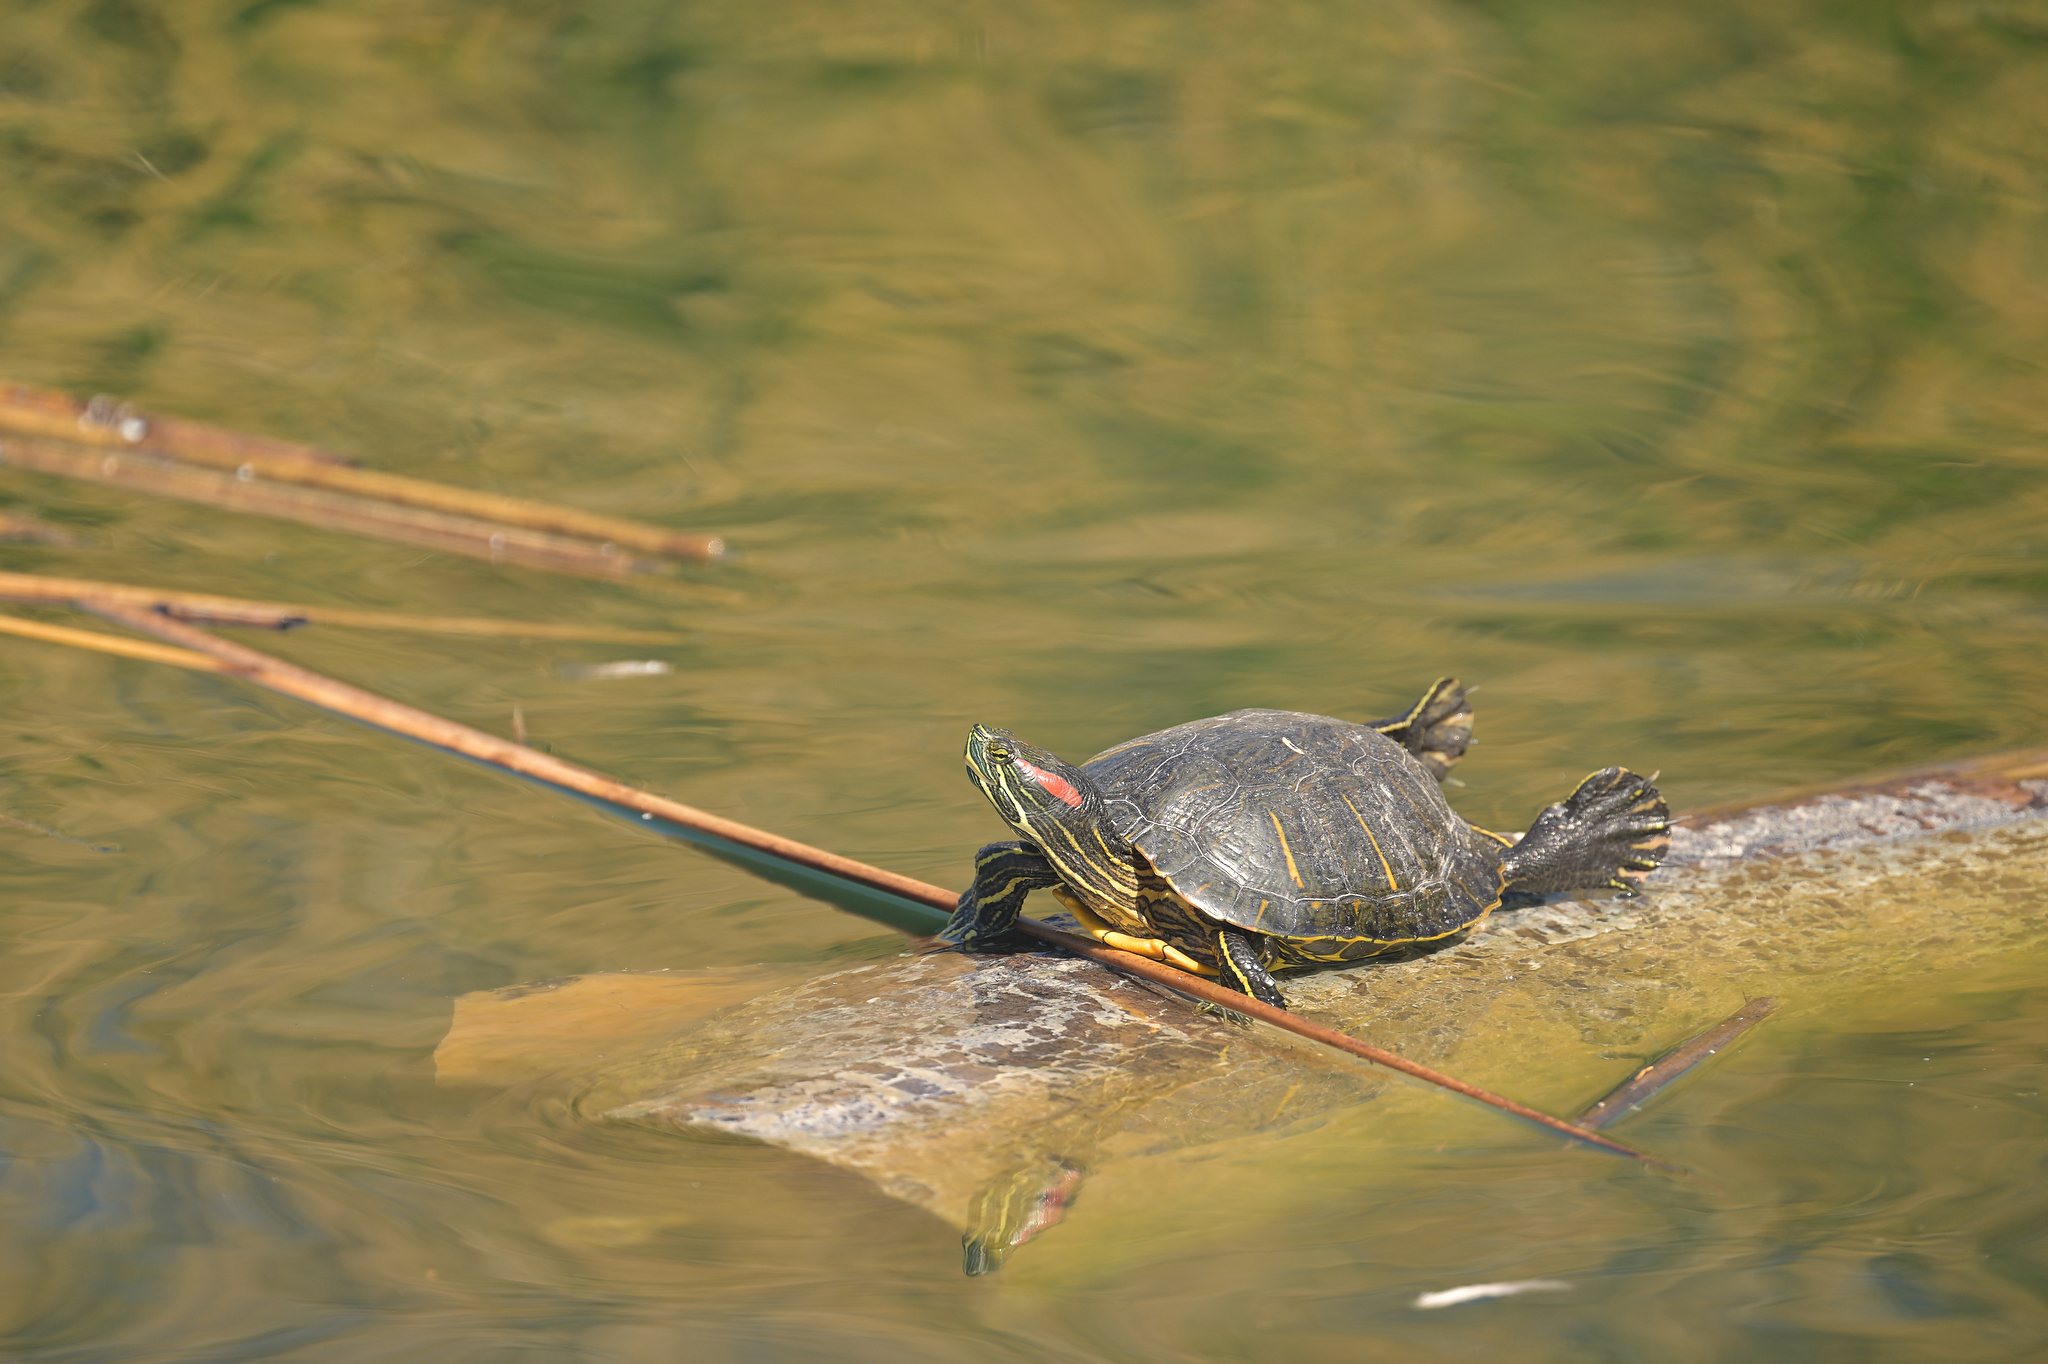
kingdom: Animalia
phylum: Chordata
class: Testudines
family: Emydidae
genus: Trachemys
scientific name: Trachemys scripta
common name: Slider
